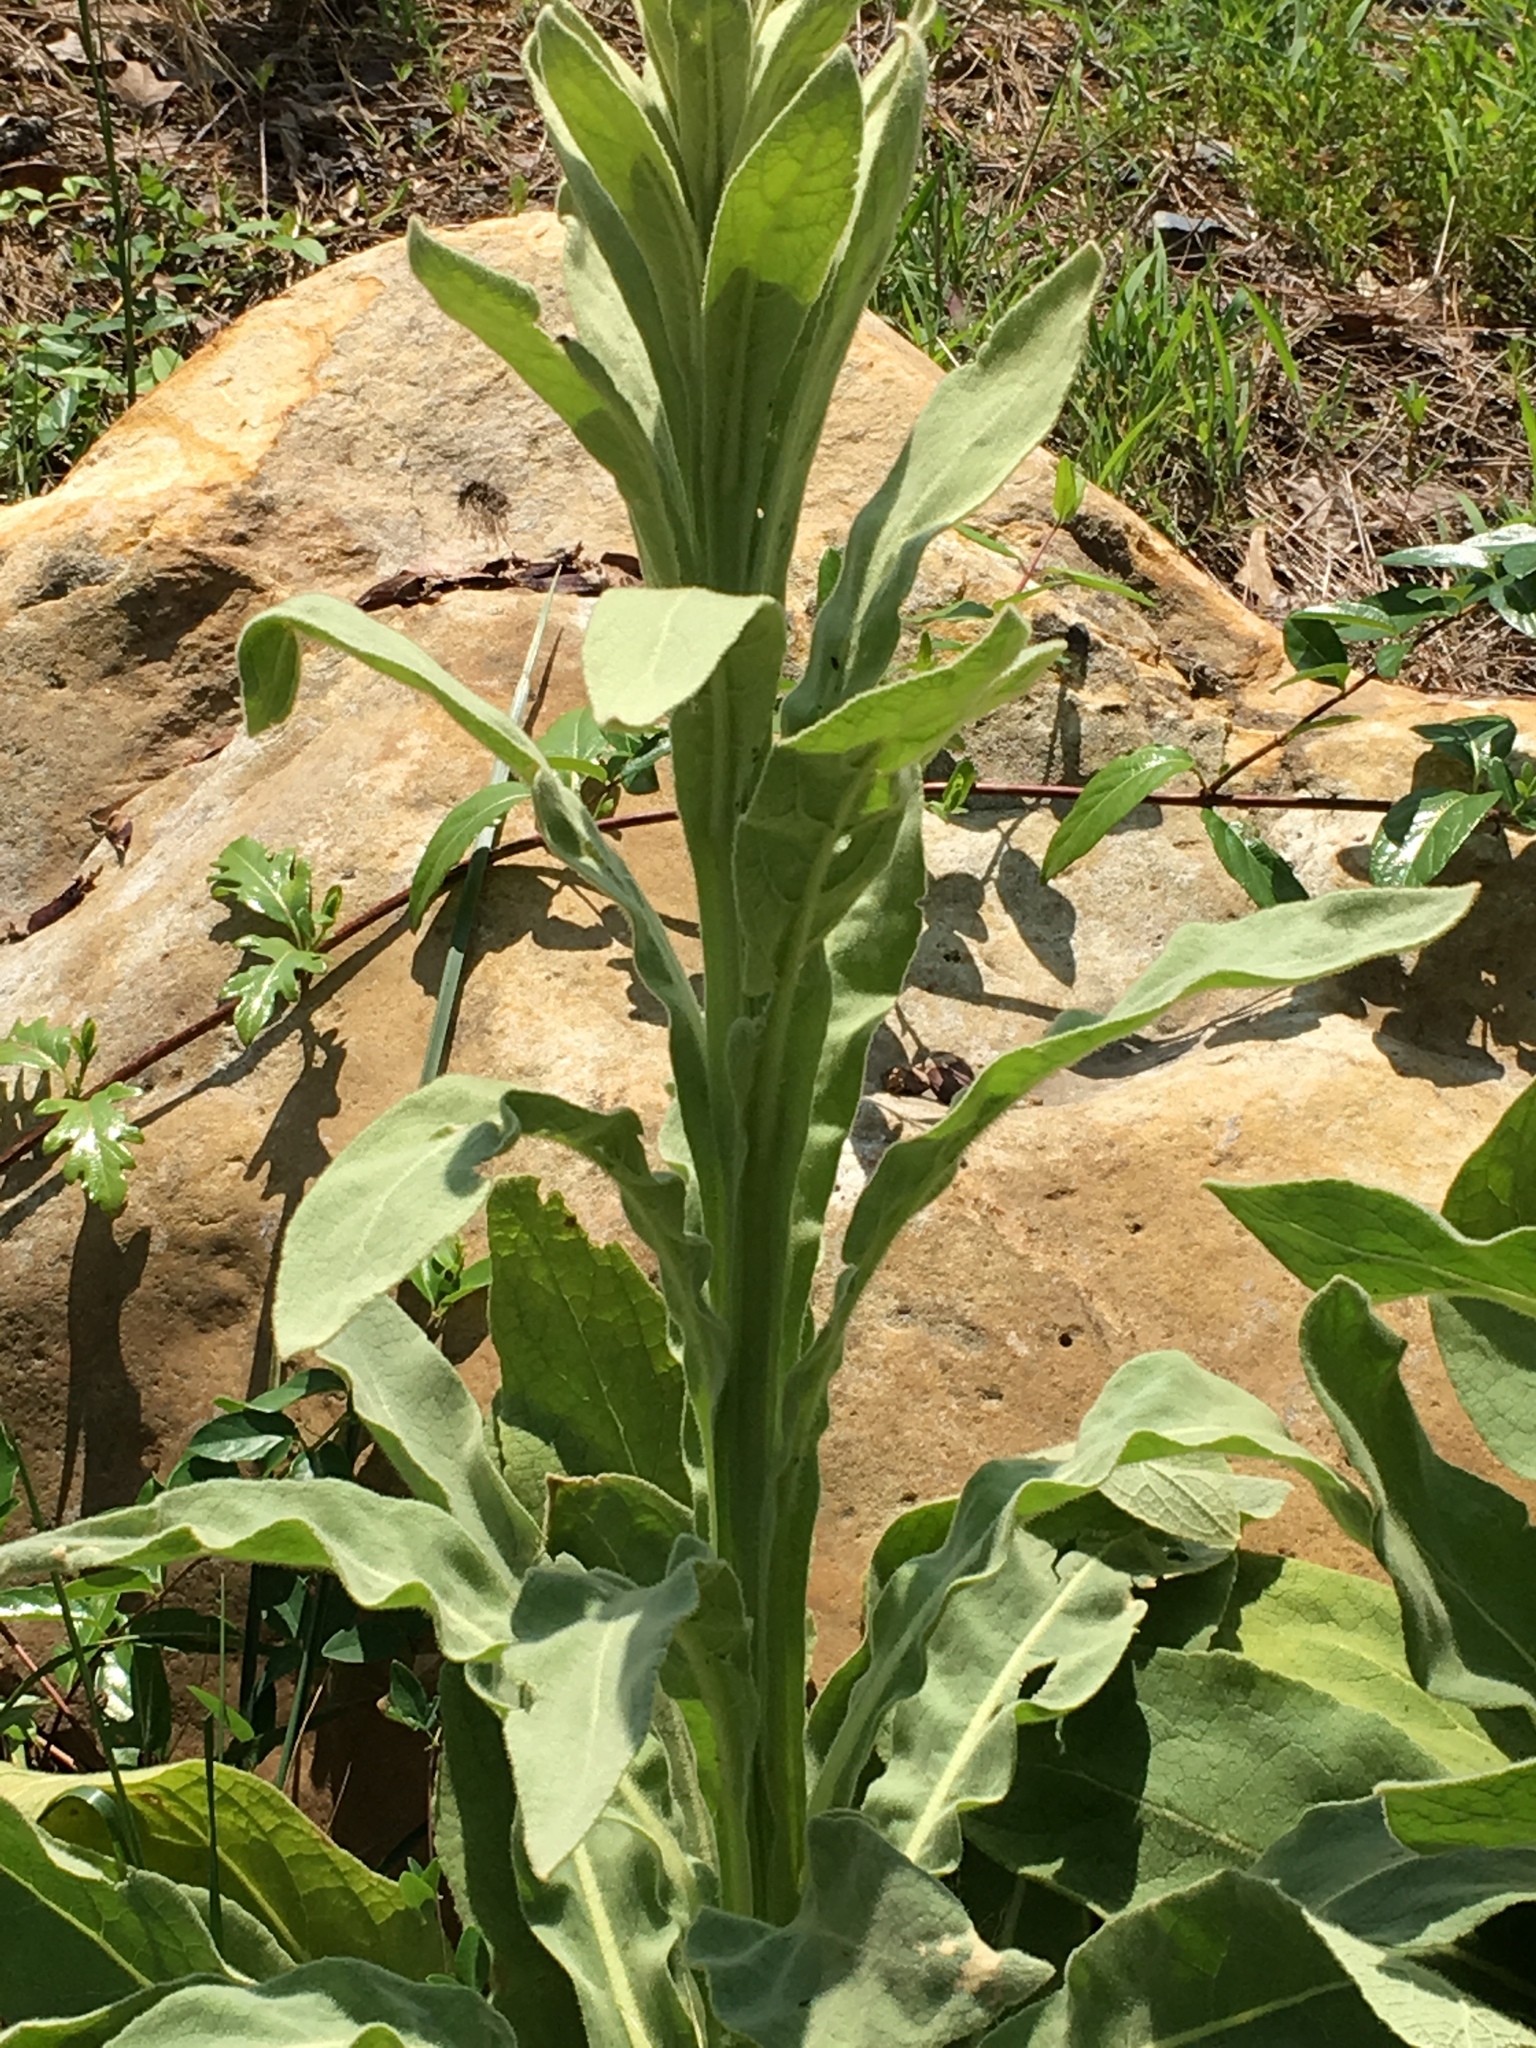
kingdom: Plantae
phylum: Tracheophyta
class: Magnoliopsida
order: Lamiales
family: Scrophulariaceae
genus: Verbascum
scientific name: Verbascum thapsus
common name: Common mullein
